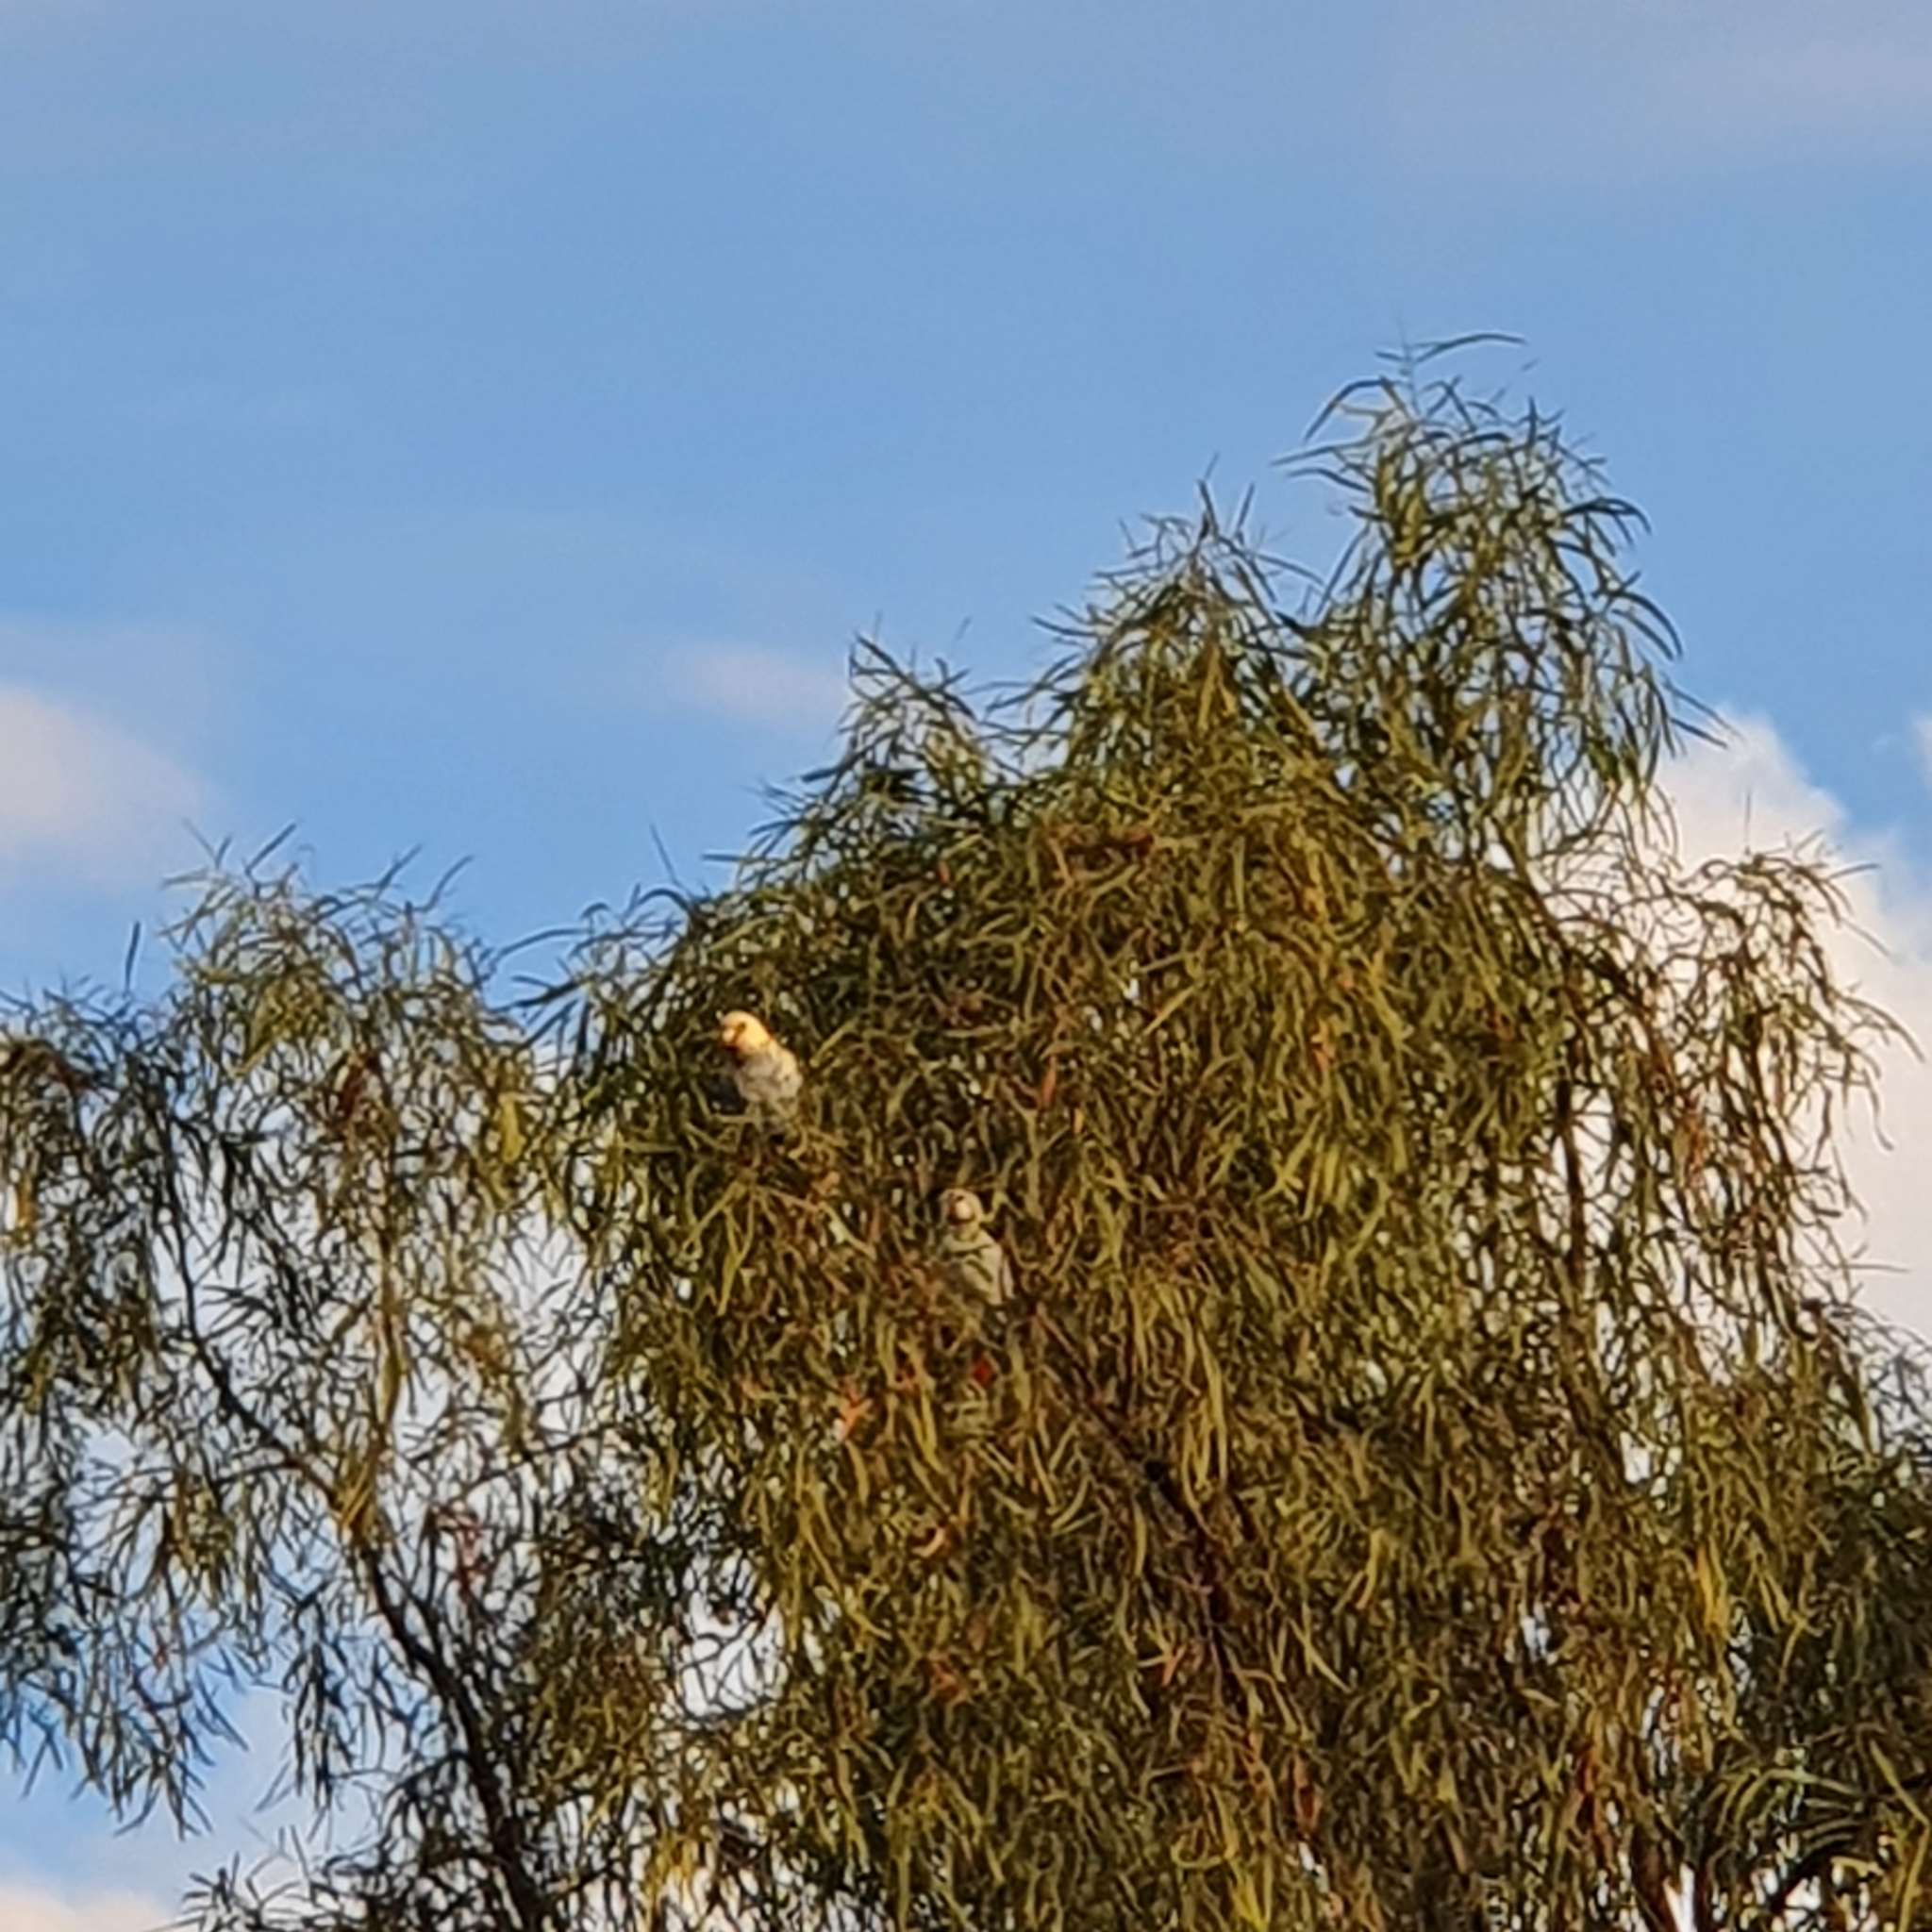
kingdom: Animalia
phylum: Chordata
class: Aves
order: Psittaciformes
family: Psittacidae
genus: Platycercus
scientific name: Platycercus adscitus
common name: Pale-headed rosella
